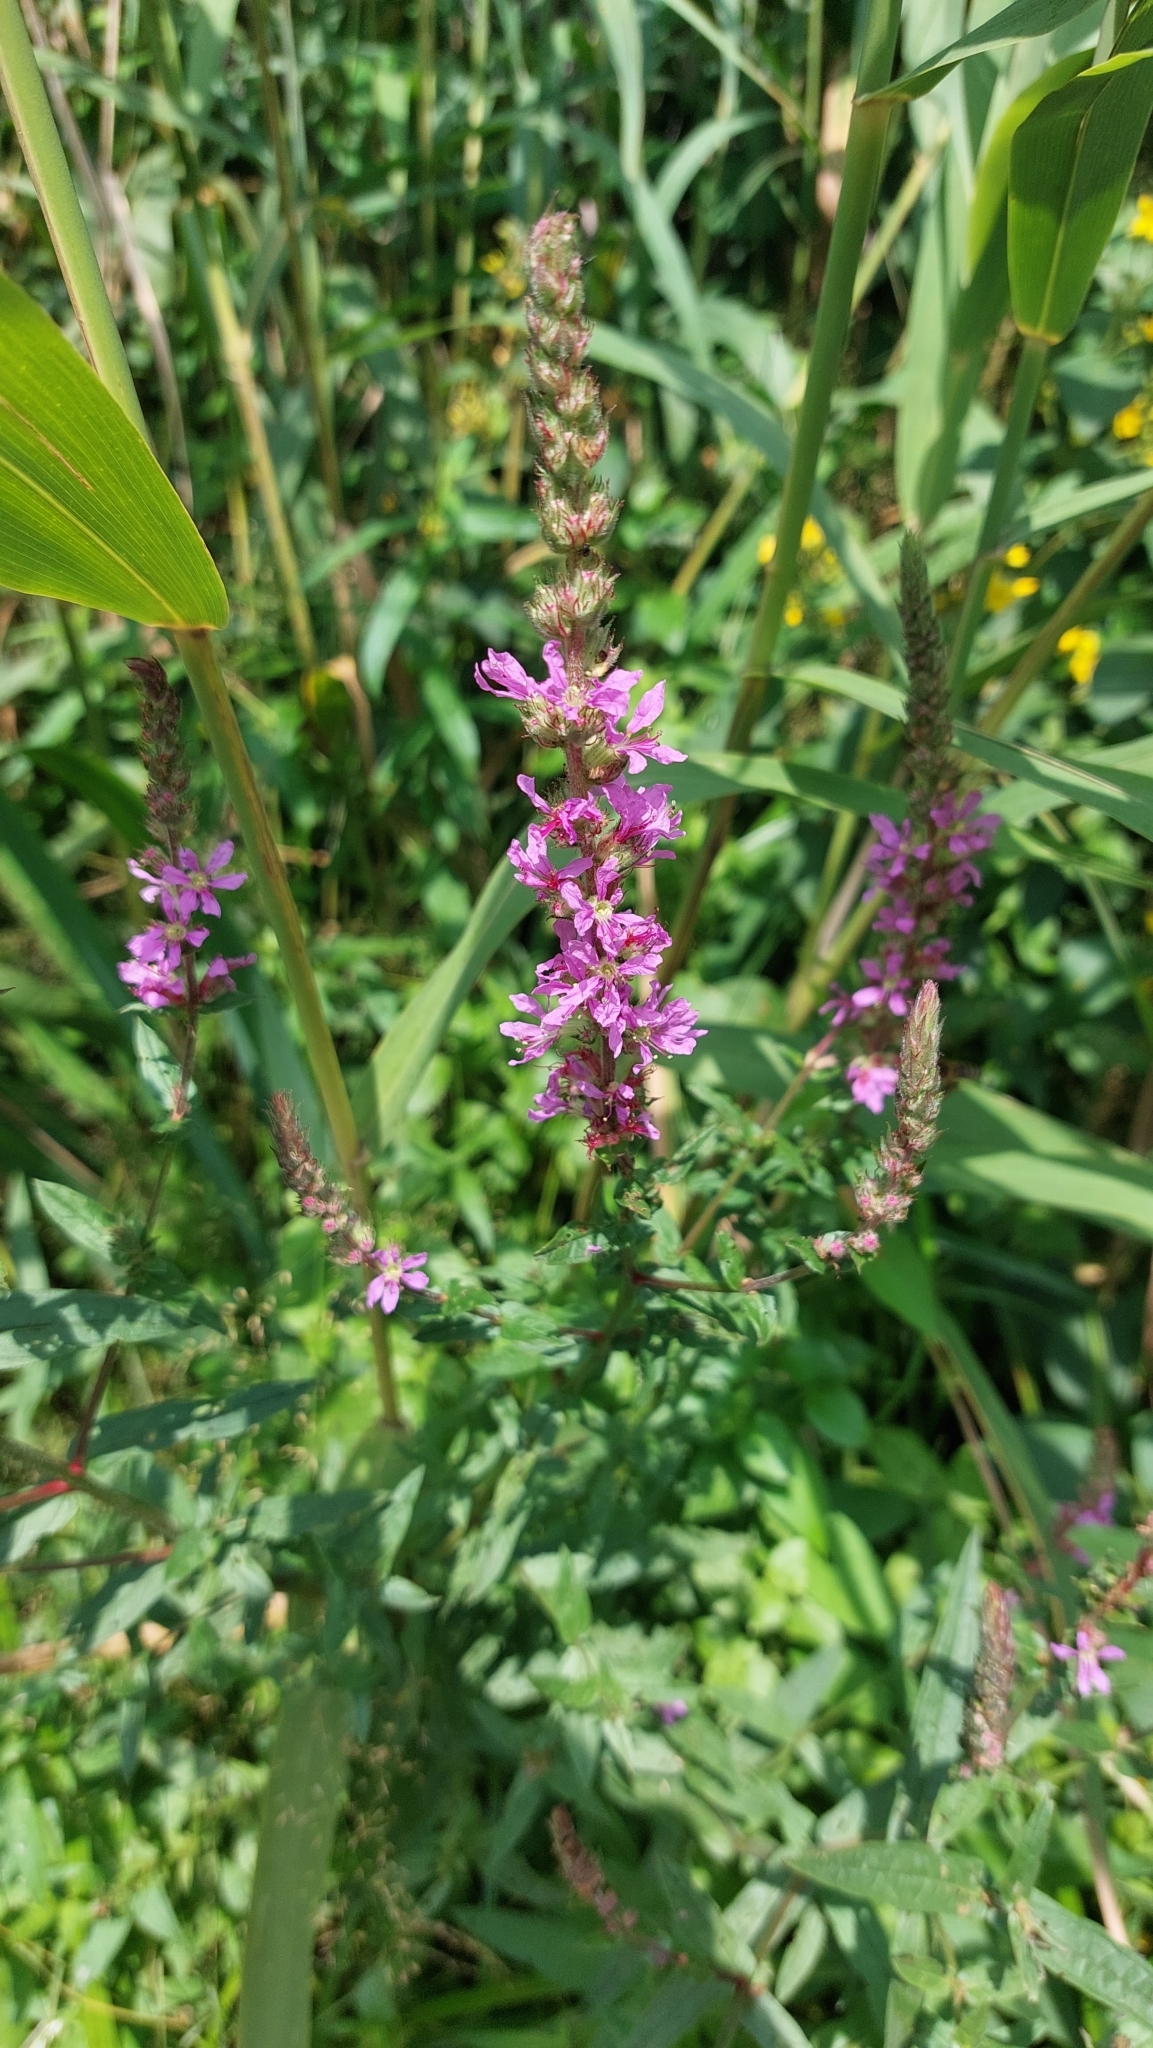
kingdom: Plantae
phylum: Tracheophyta
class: Magnoliopsida
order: Myrtales
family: Lythraceae
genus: Lythrum
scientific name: Lythrum salicaria
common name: Purple loosestrife
